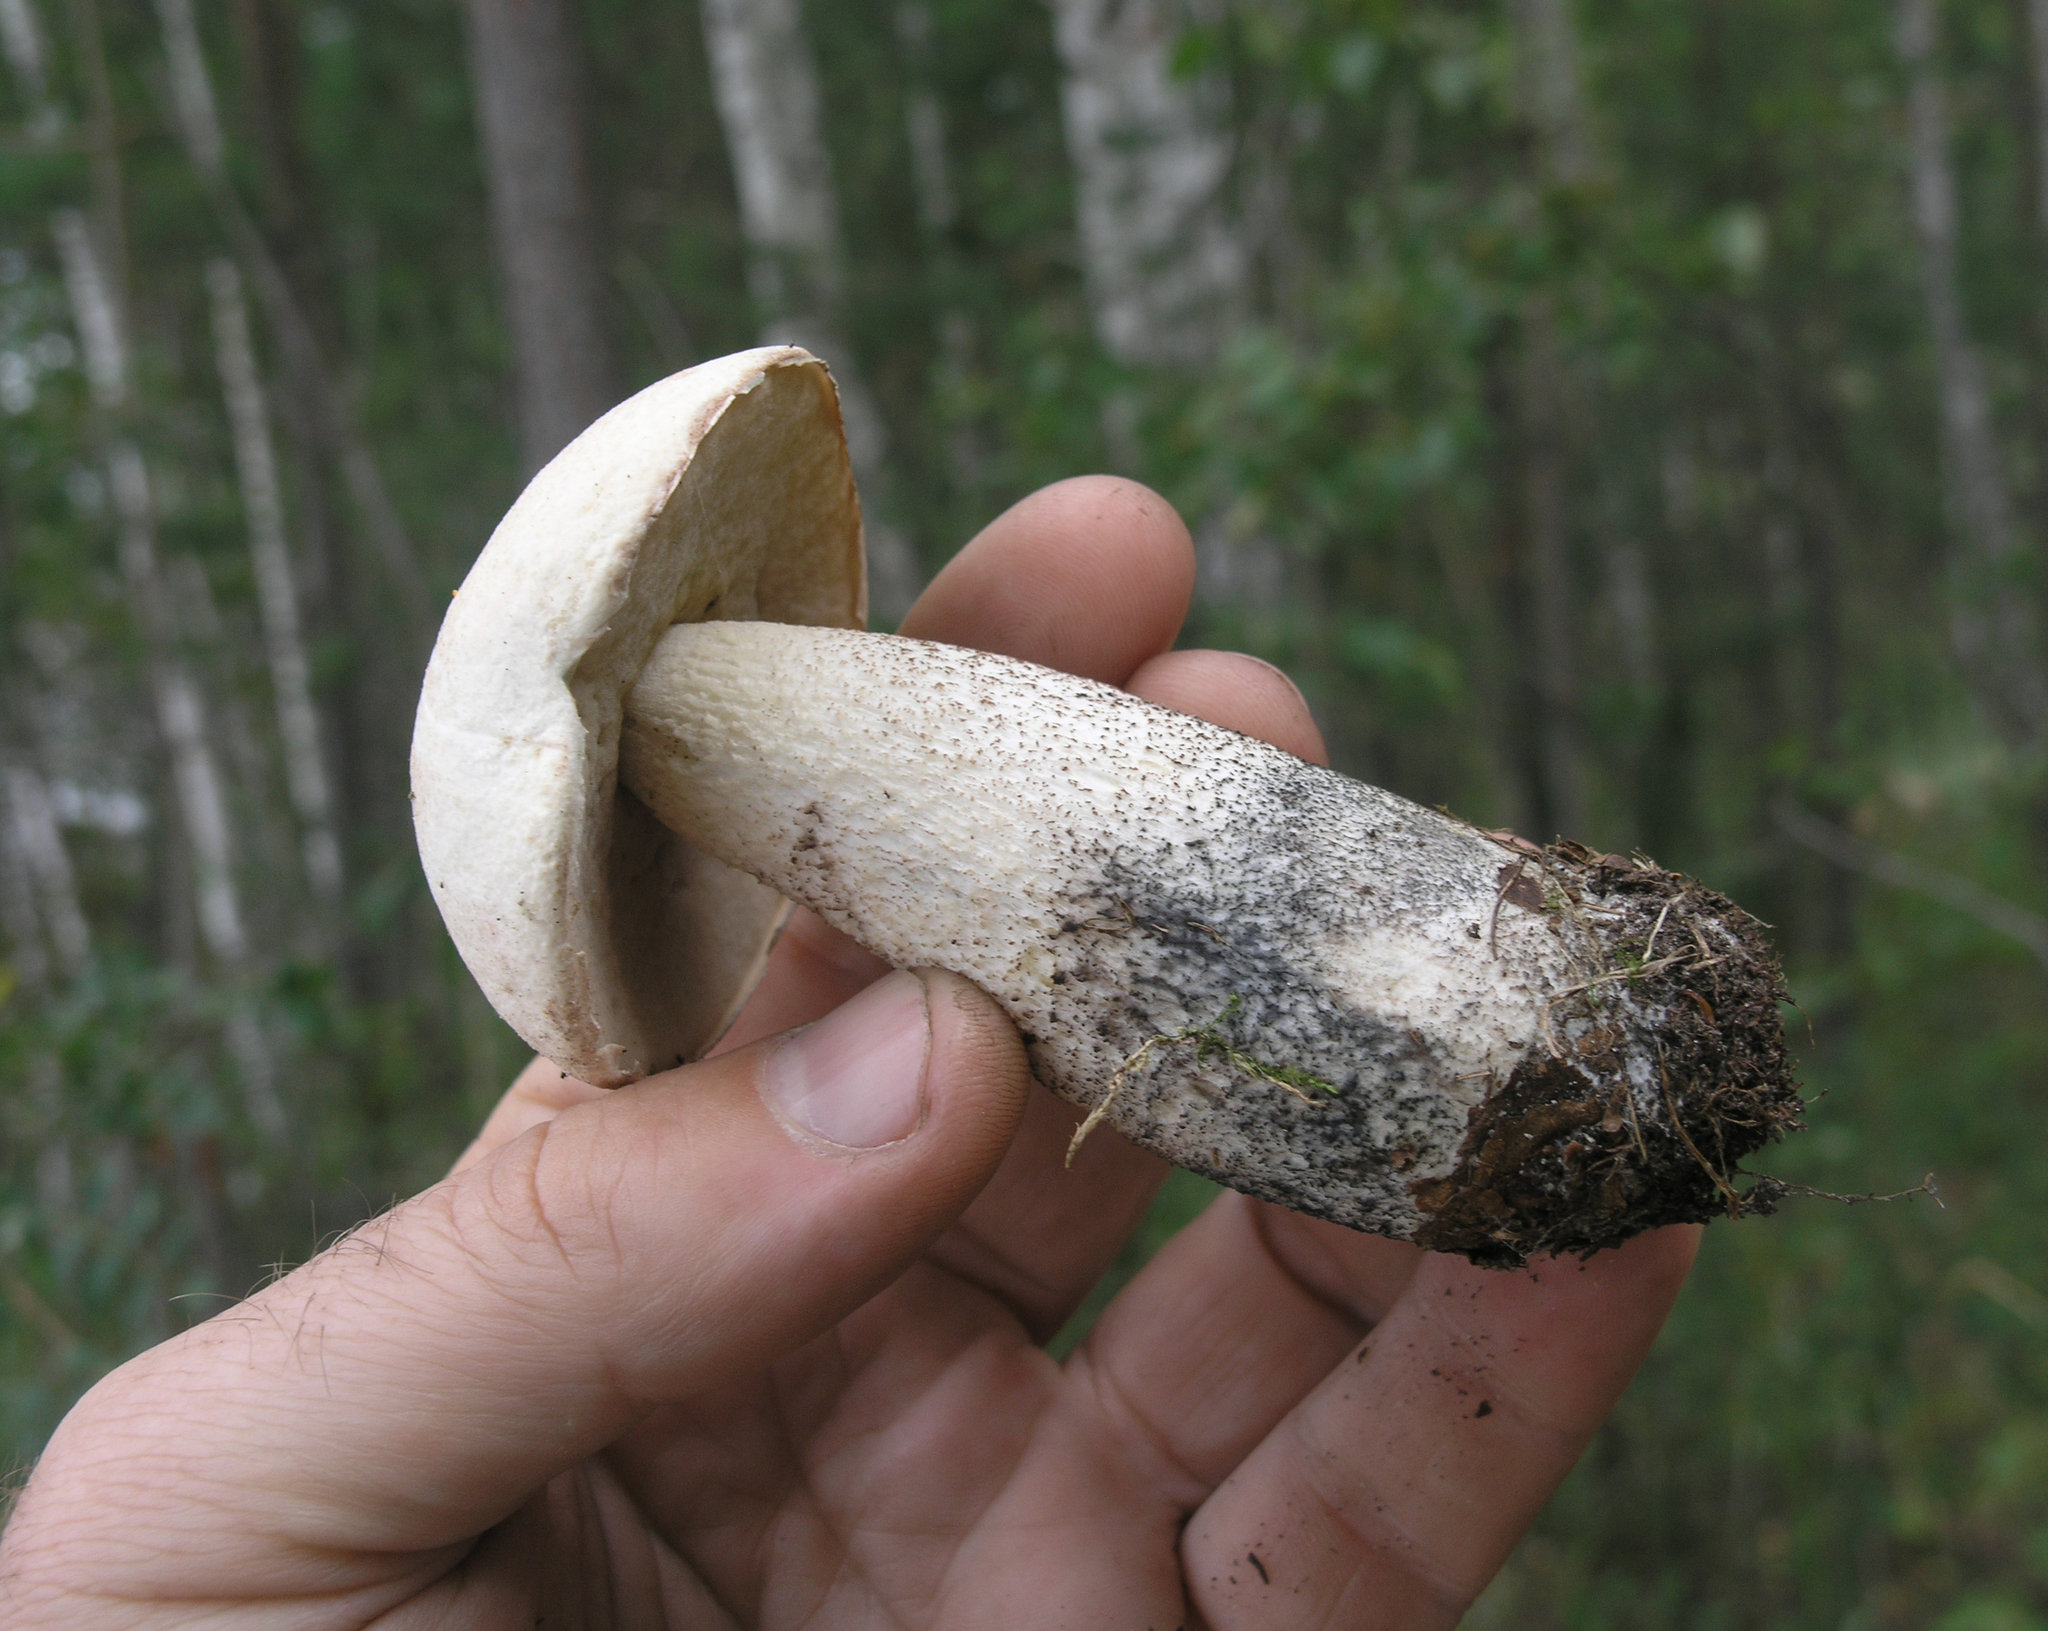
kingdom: Fungi
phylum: Basidiomycota
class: Agaricomycetes
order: Boletales
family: Boletaceae
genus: Leccinum
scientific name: Leccinum versipelle
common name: Orange birch bolete
